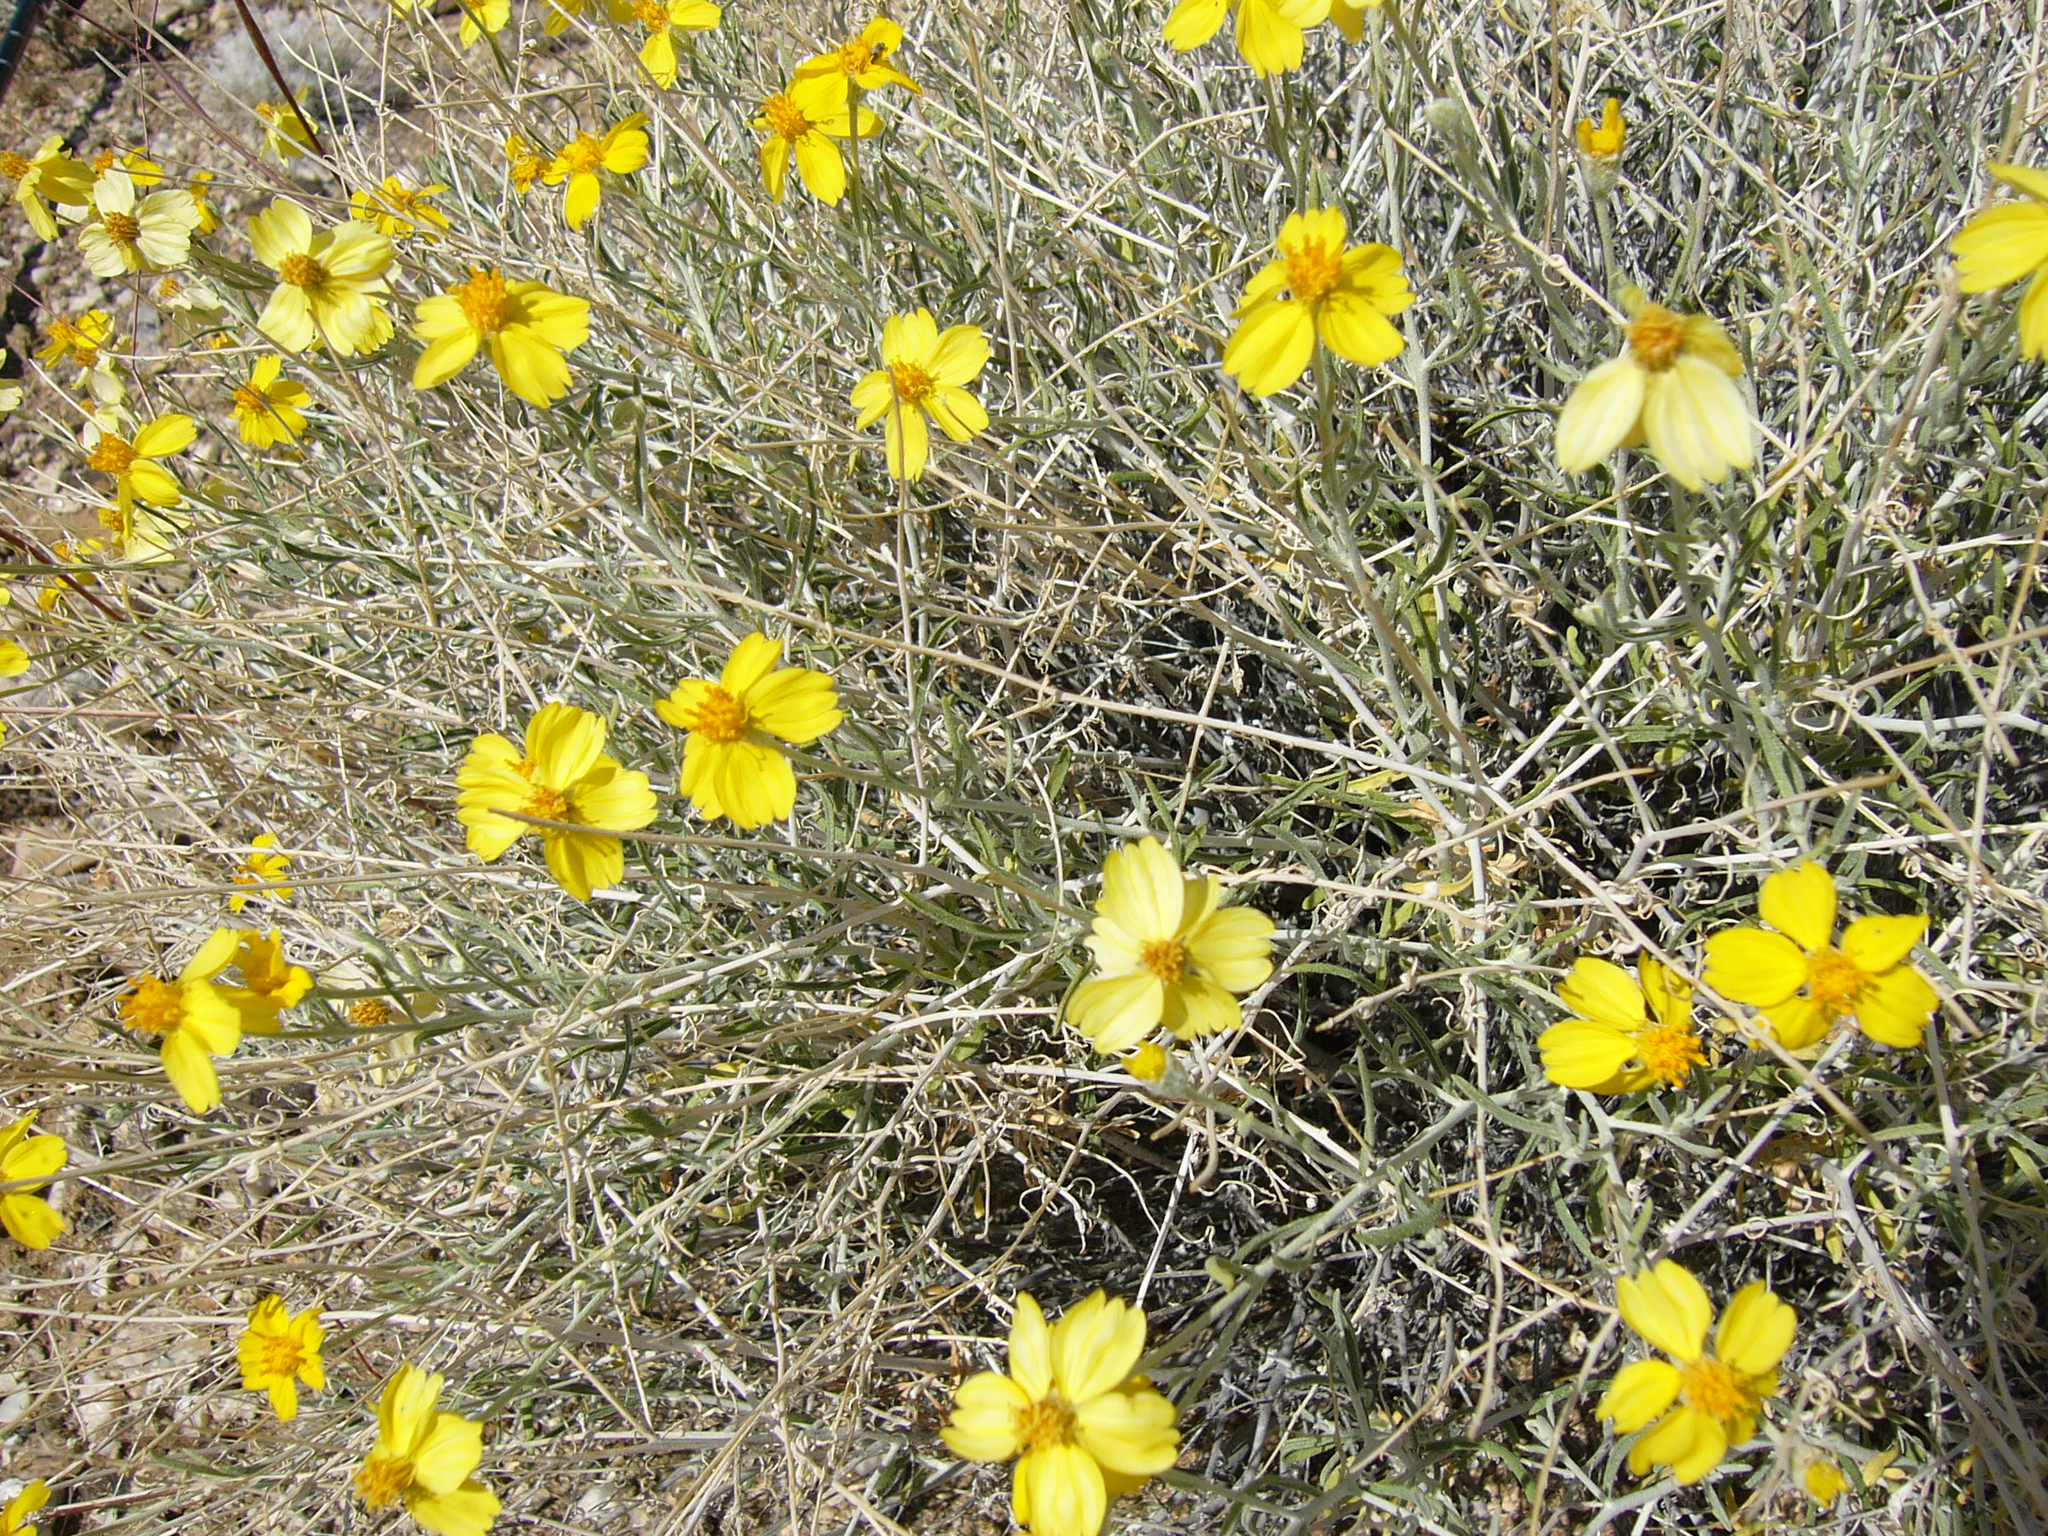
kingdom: Plantae
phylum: Tracheophyta
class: Magnoliopsida
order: Asterales
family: Asteraceae
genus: Psilostrophe
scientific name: Psilostrophe cooperi
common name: White-stem paper-flower
